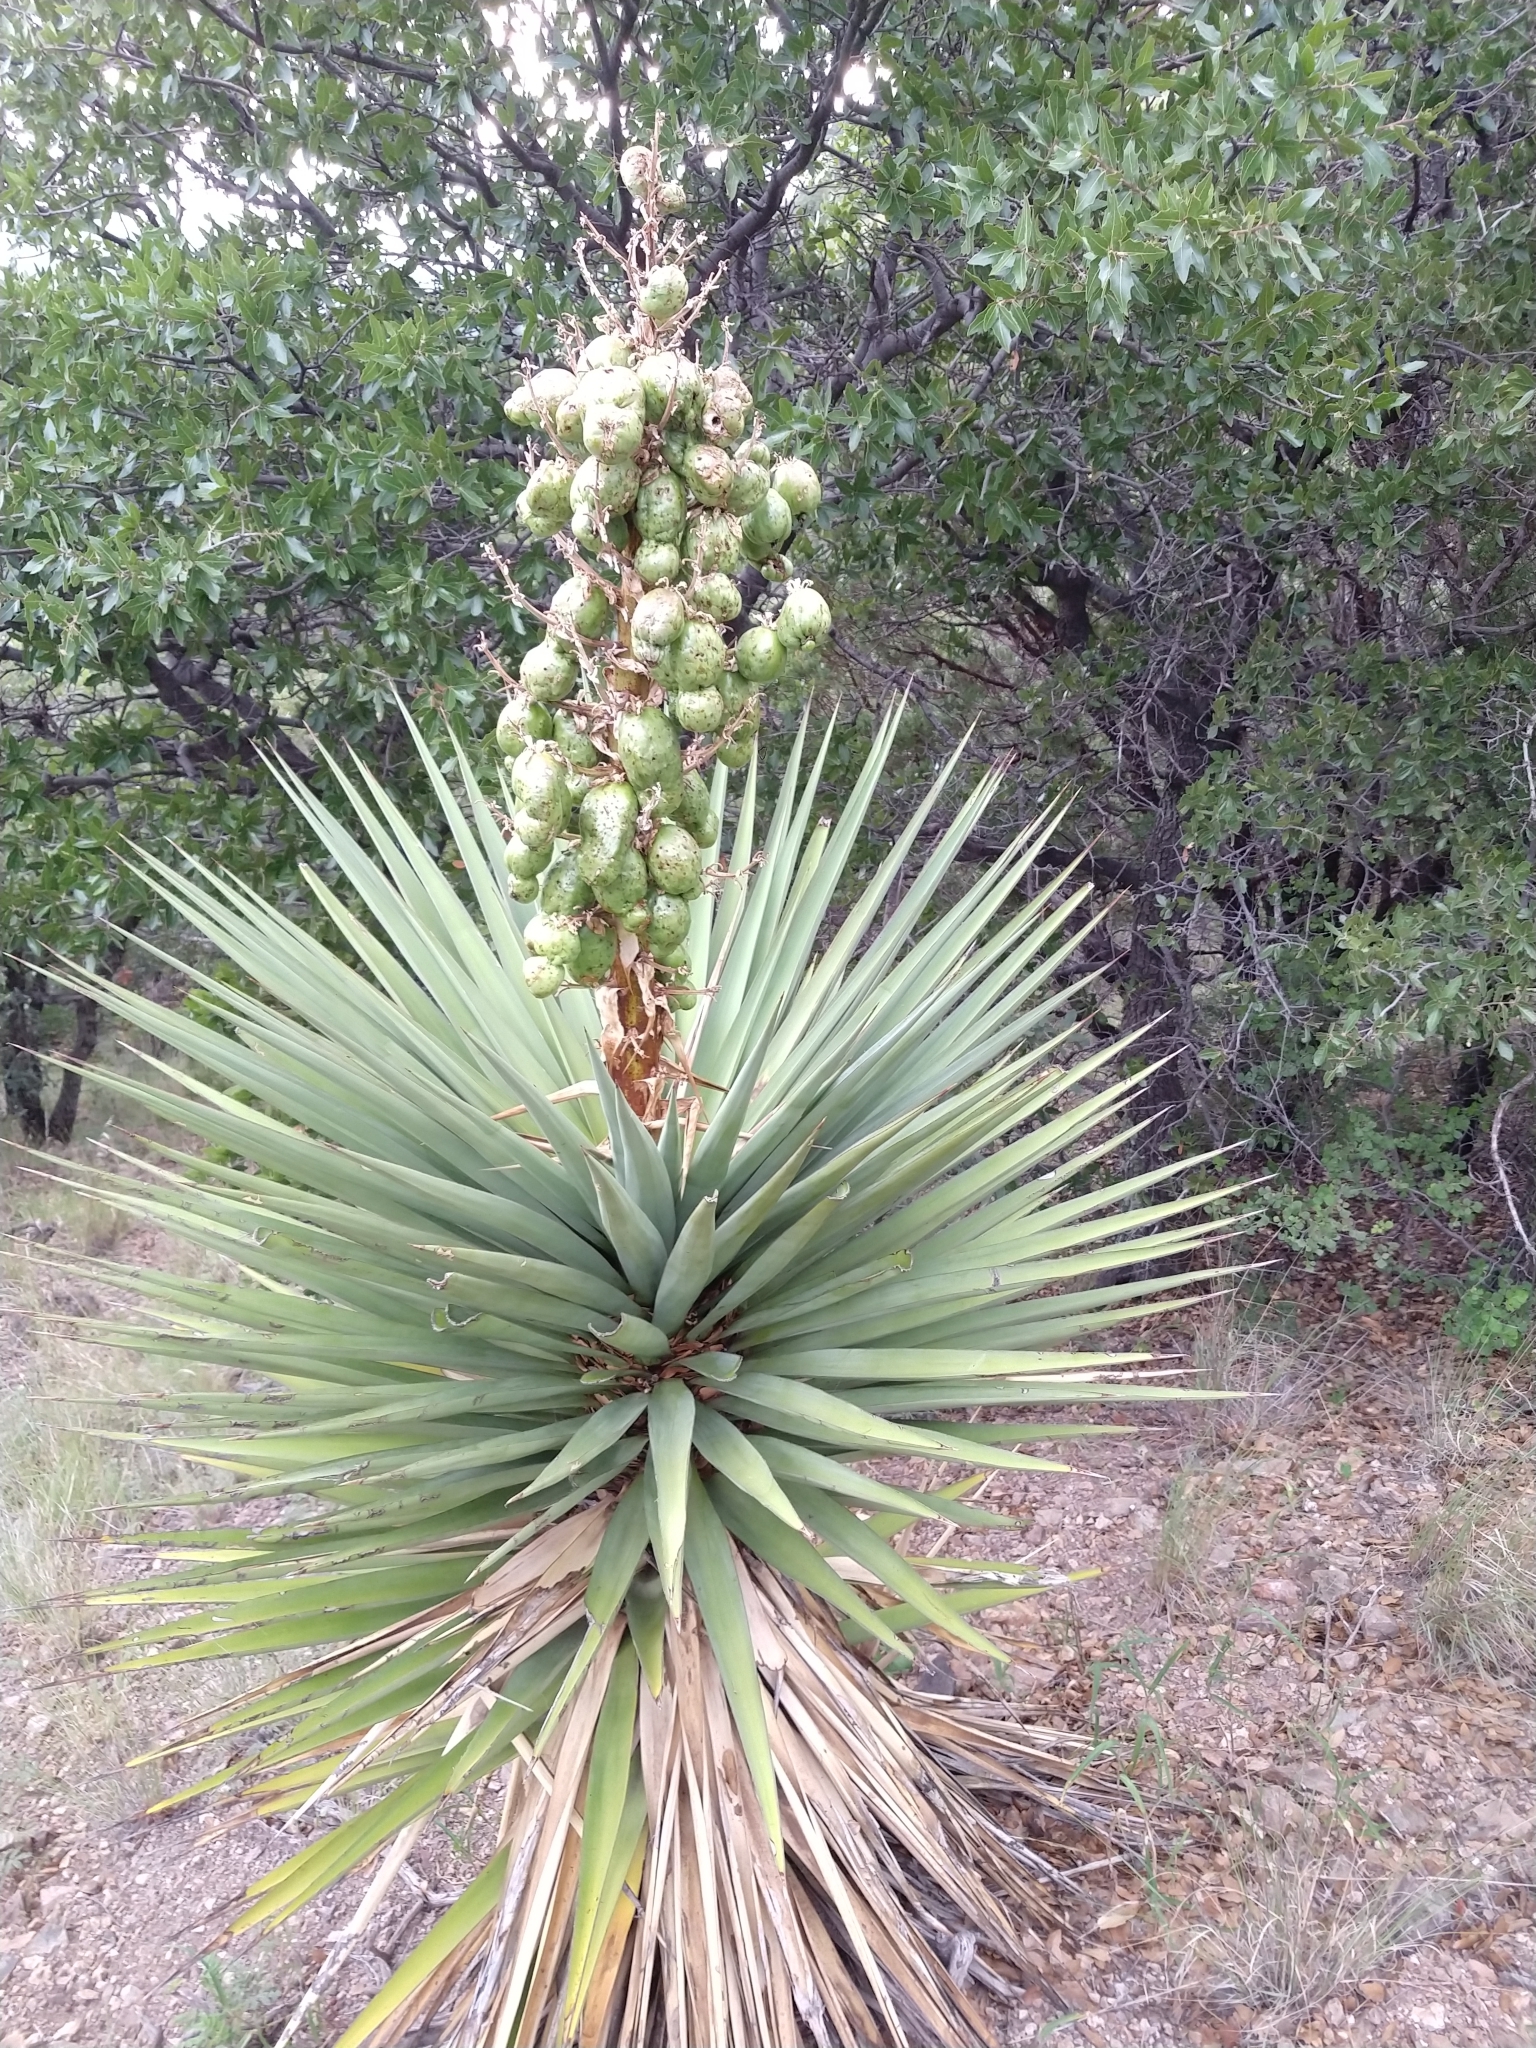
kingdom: Plantae
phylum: Tracheophyta
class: Liliopsida
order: Asparagales
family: Asparagaceae
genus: Yucca
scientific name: Yucca schottii
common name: Hoary yucca
